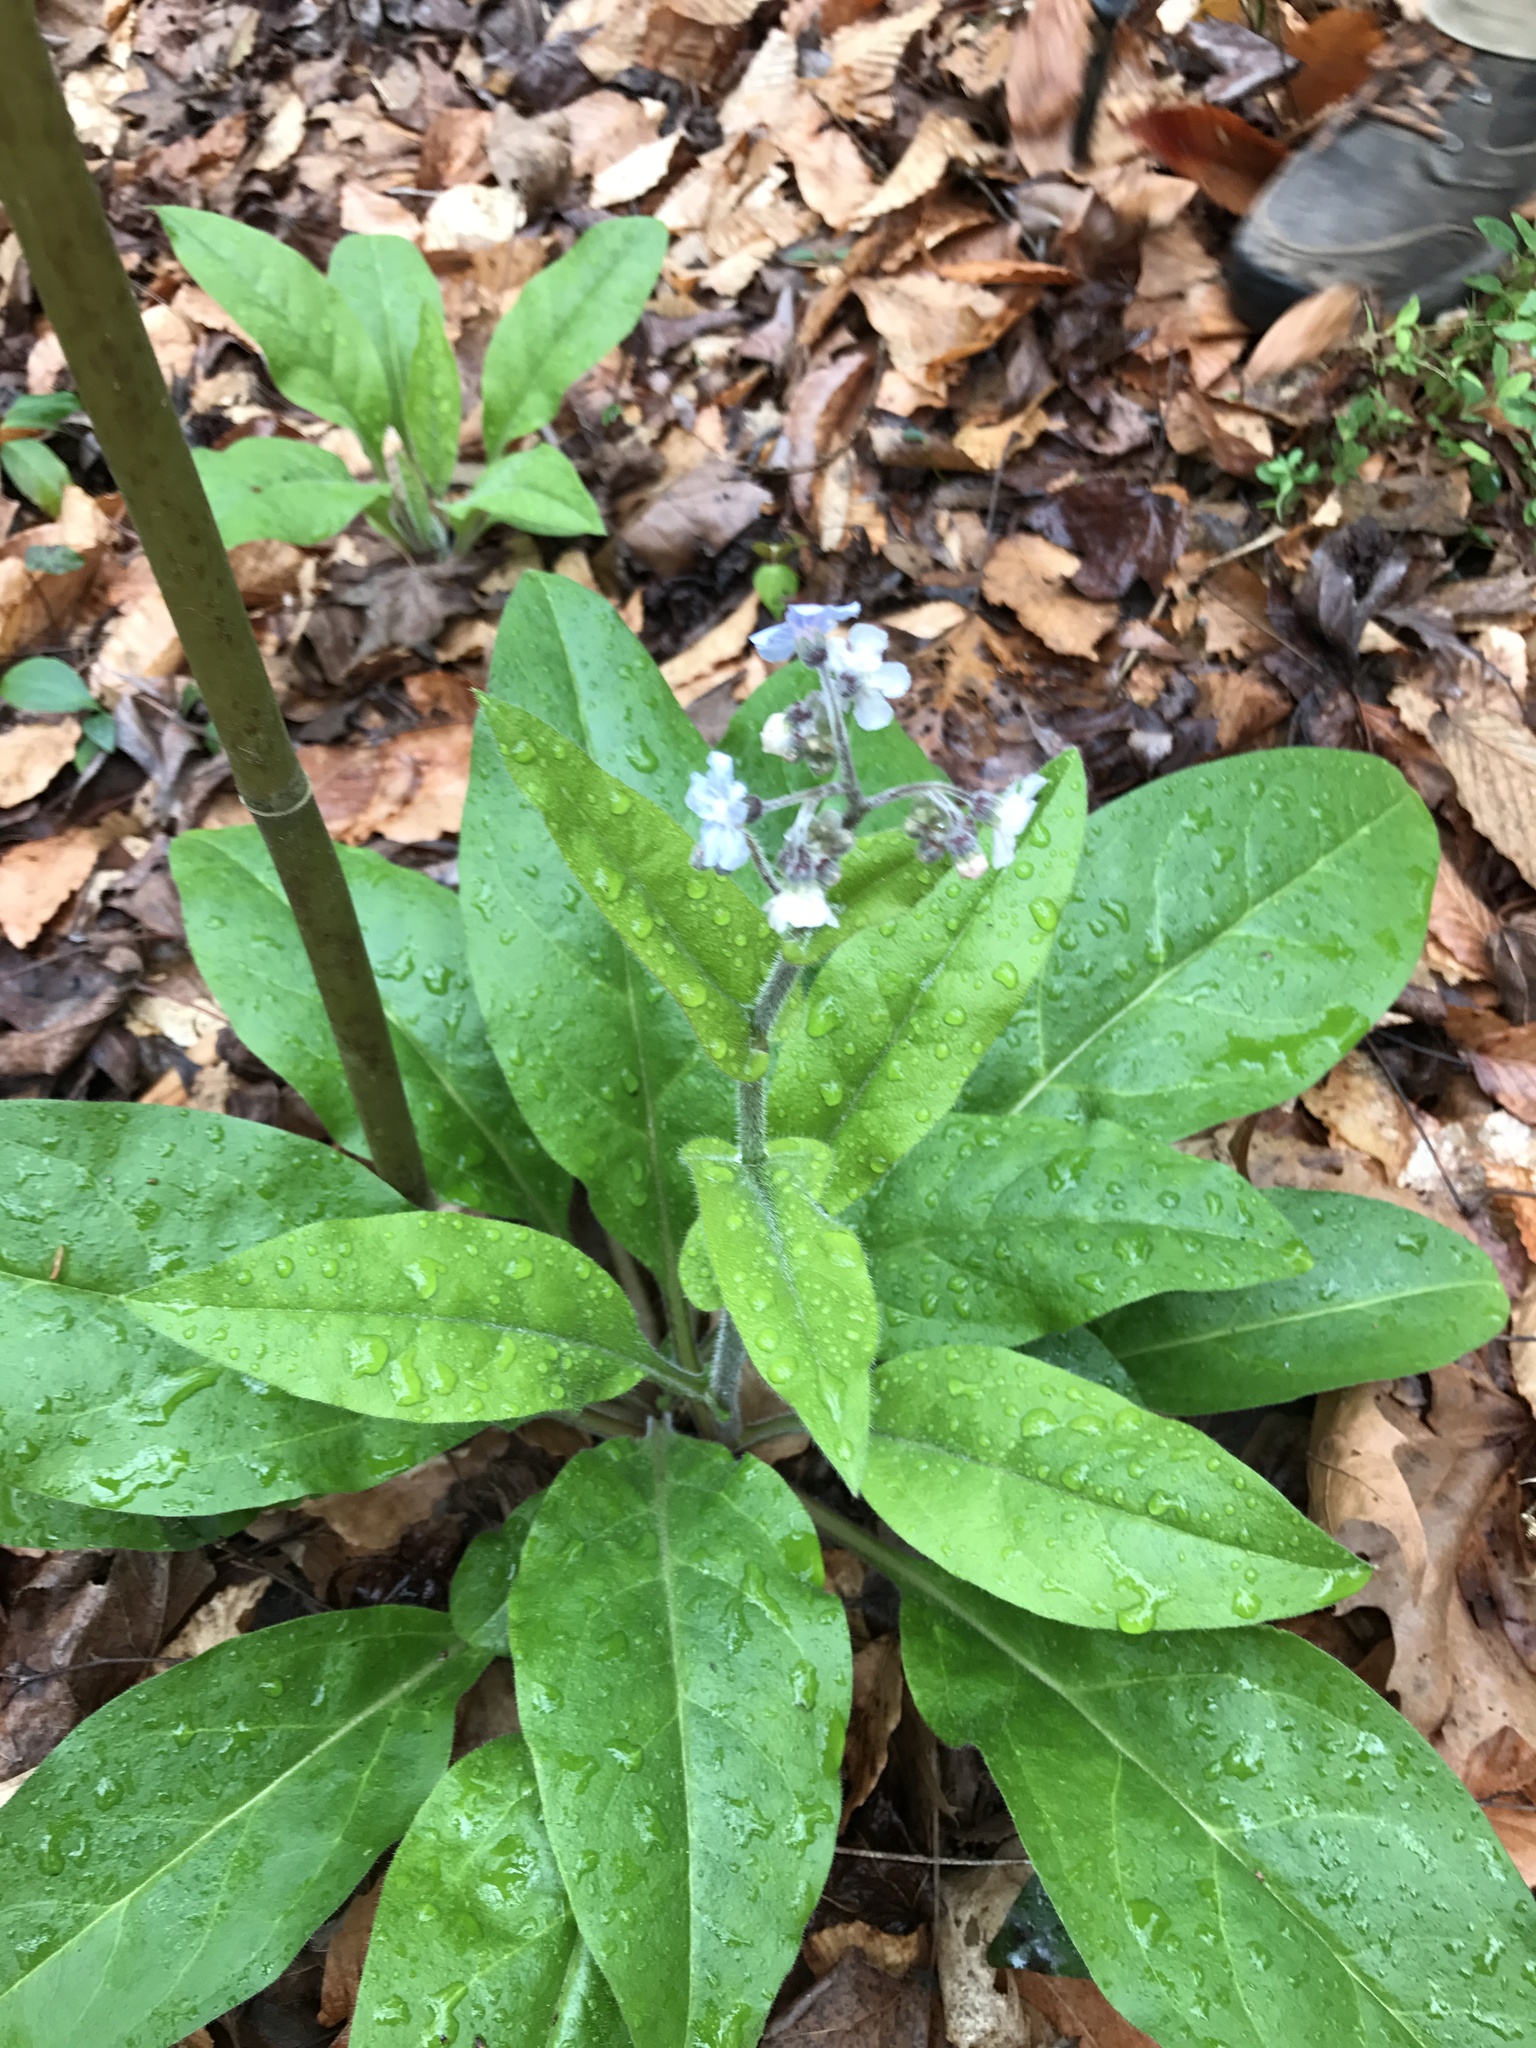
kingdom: Plantae
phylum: Tracheophyta
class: Magnoliopsida
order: Boraginales
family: Boraginaceae
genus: Andersonglossum
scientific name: Andersonglossum virginianum
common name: Wild comfrey
